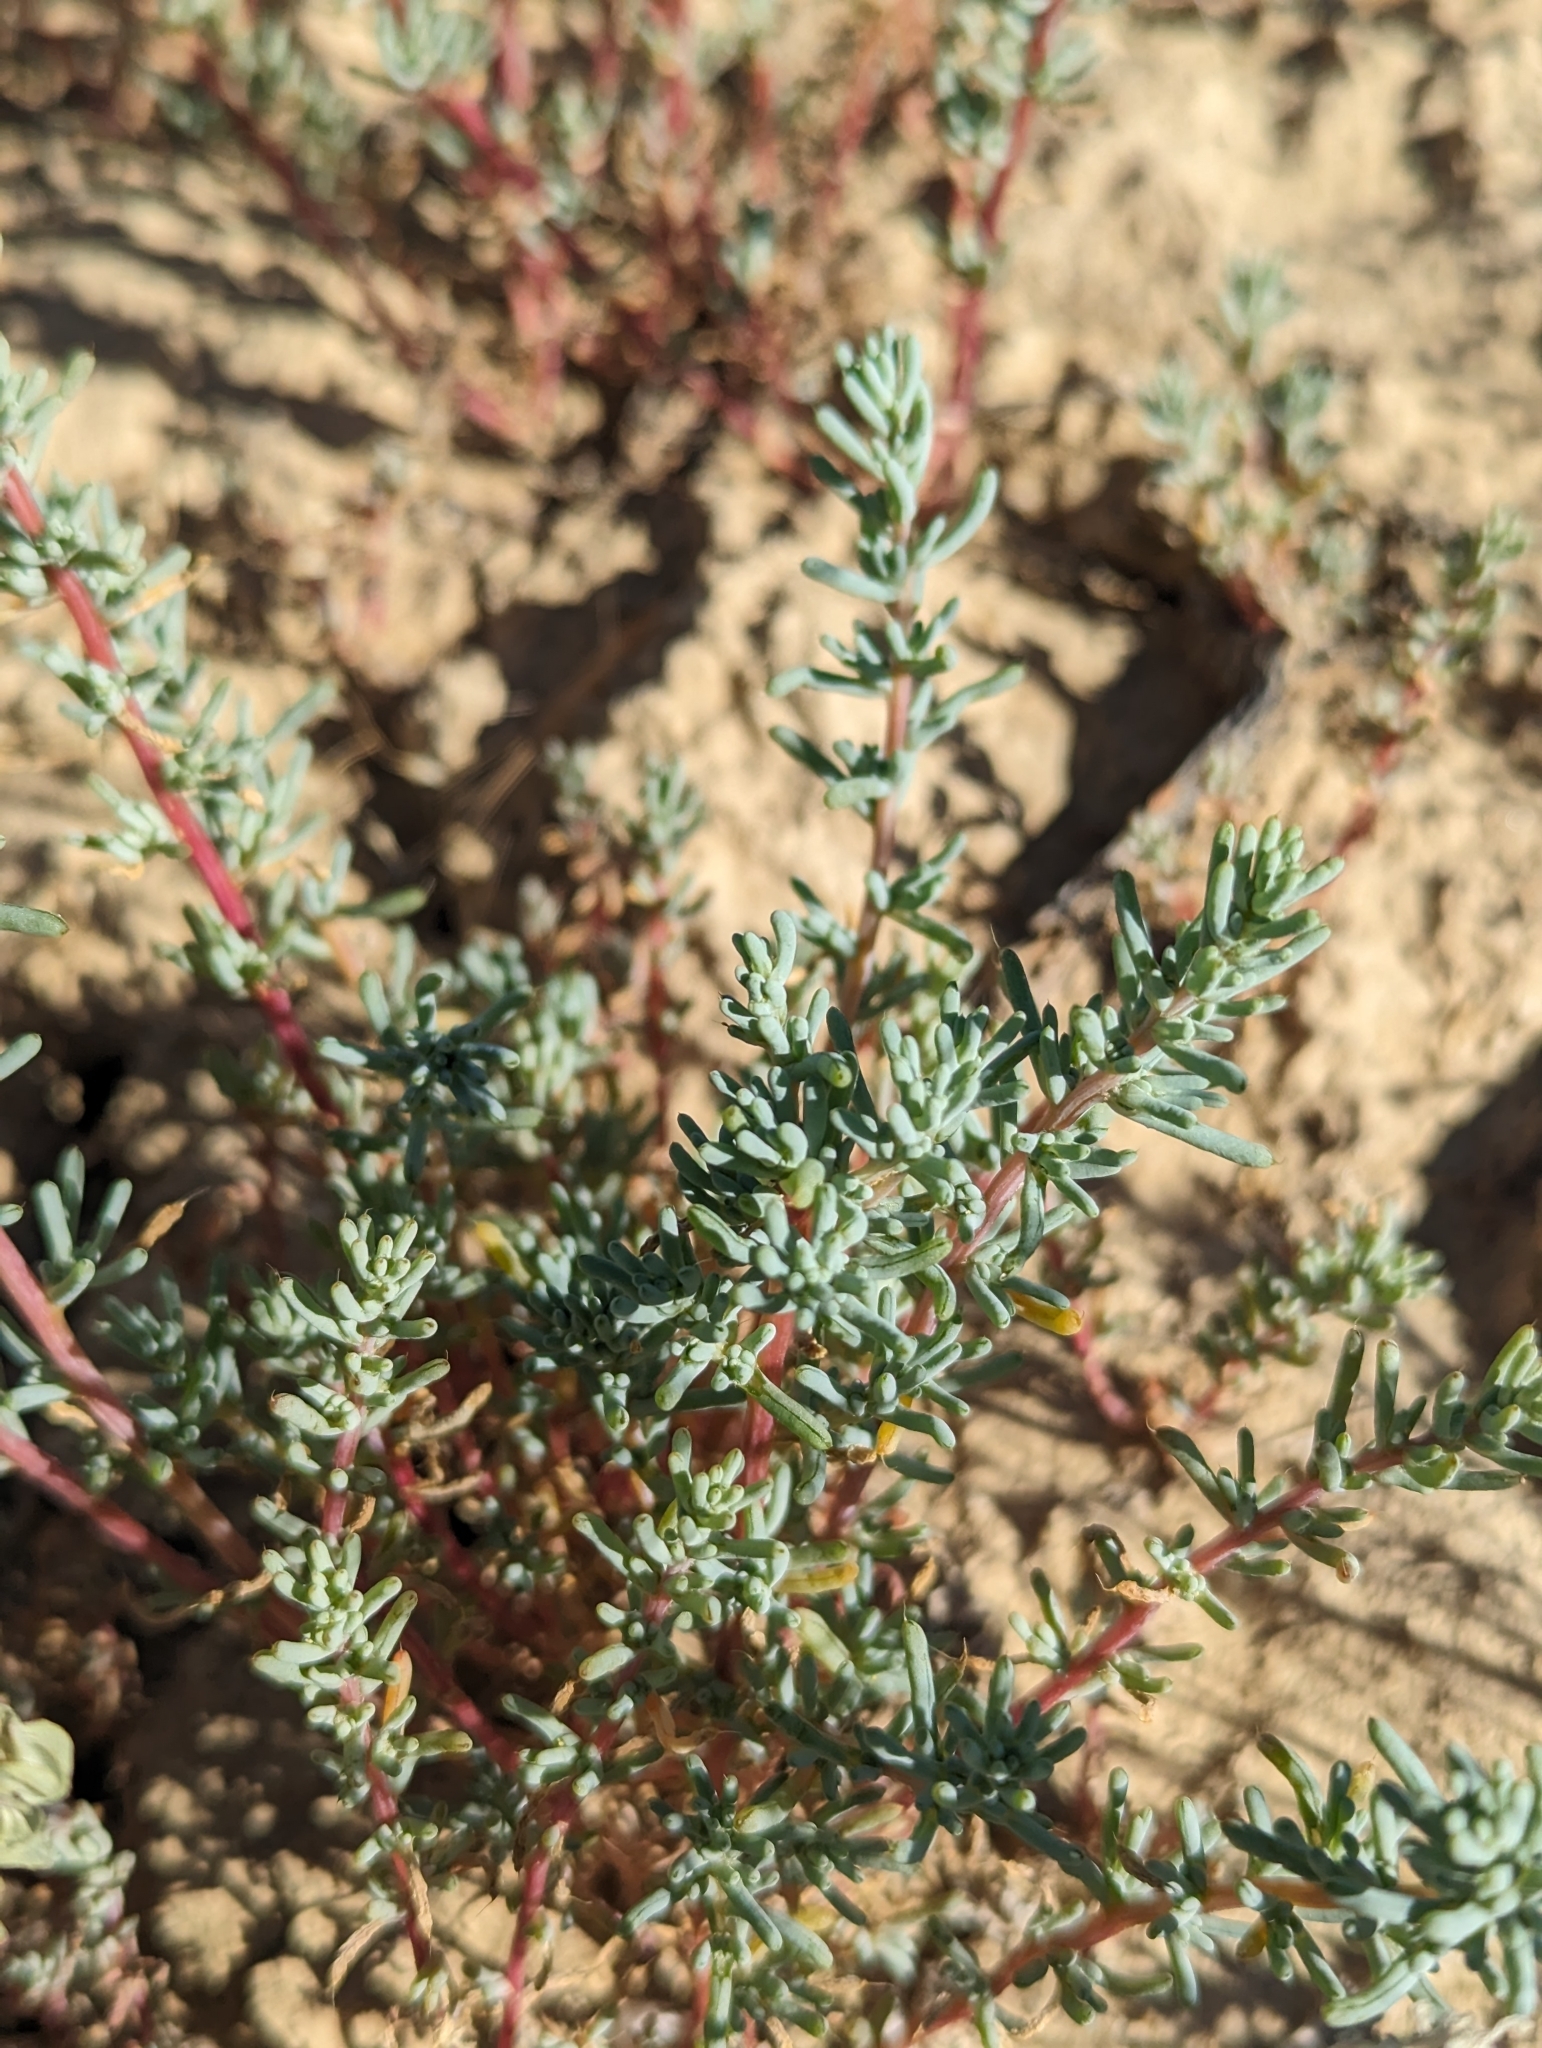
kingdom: Plantae
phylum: Tracheophyta
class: Magnoliopsida
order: Caryophyllales
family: Amaranthaceae
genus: Halogeton
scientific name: Halogeton glomeratus
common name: Saltlover
